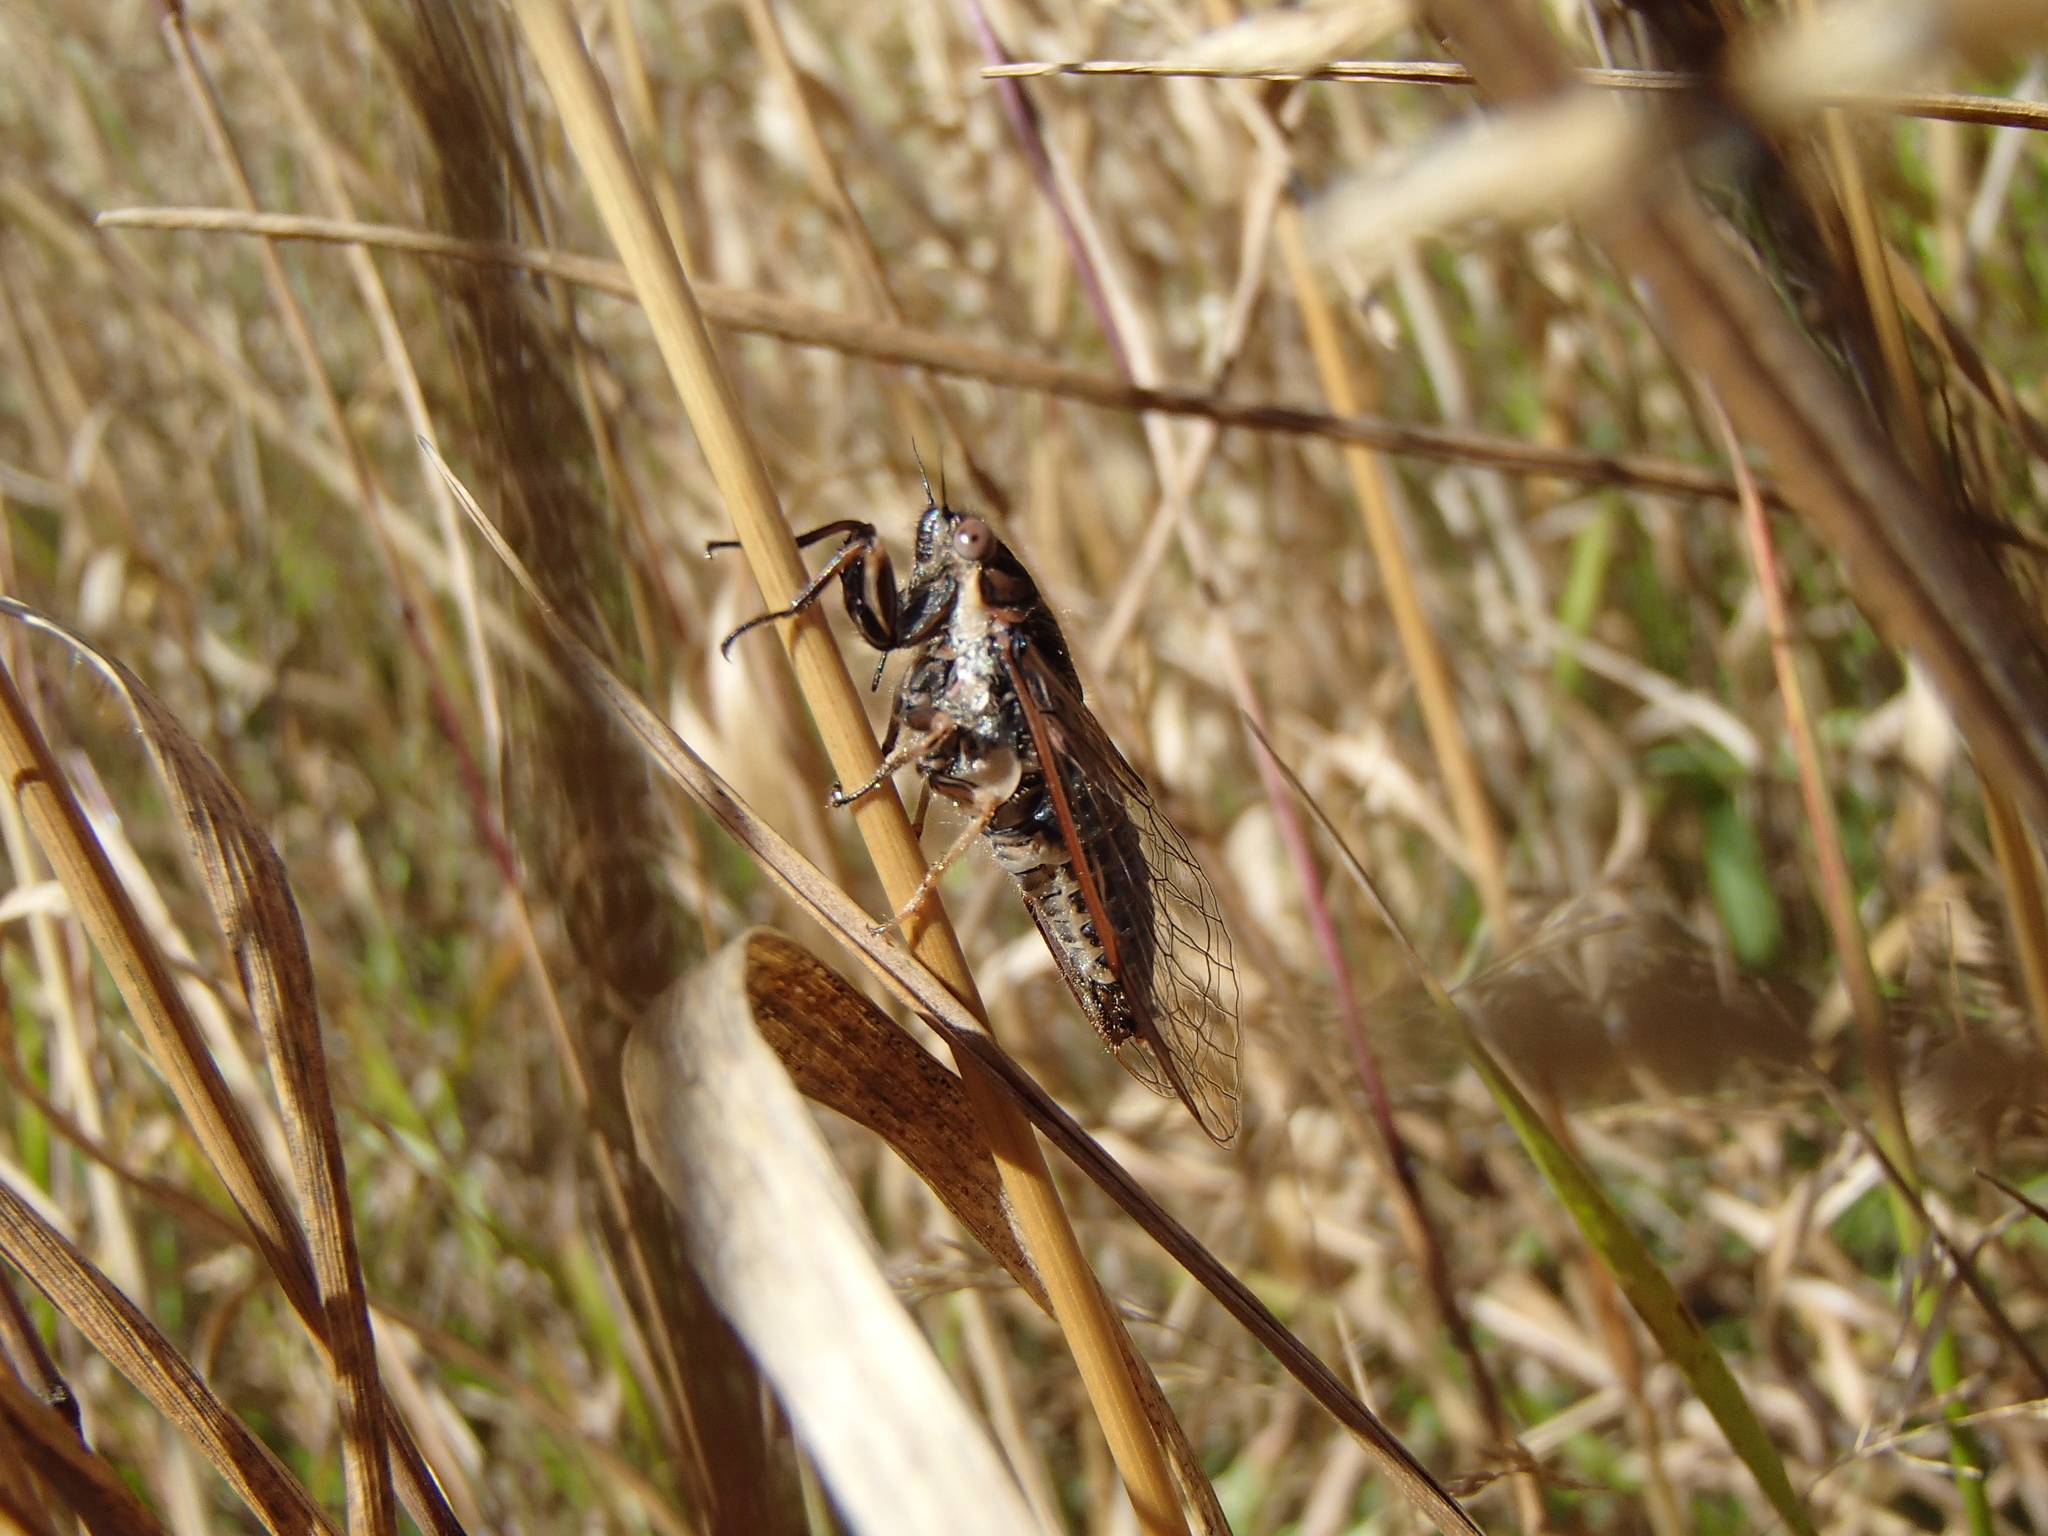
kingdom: Animalia
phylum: Arthropoda
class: Insecta
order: Hemiptera
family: Cicadidae
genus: Kikihia
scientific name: Kikihia angusta
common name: Tussock cicada
